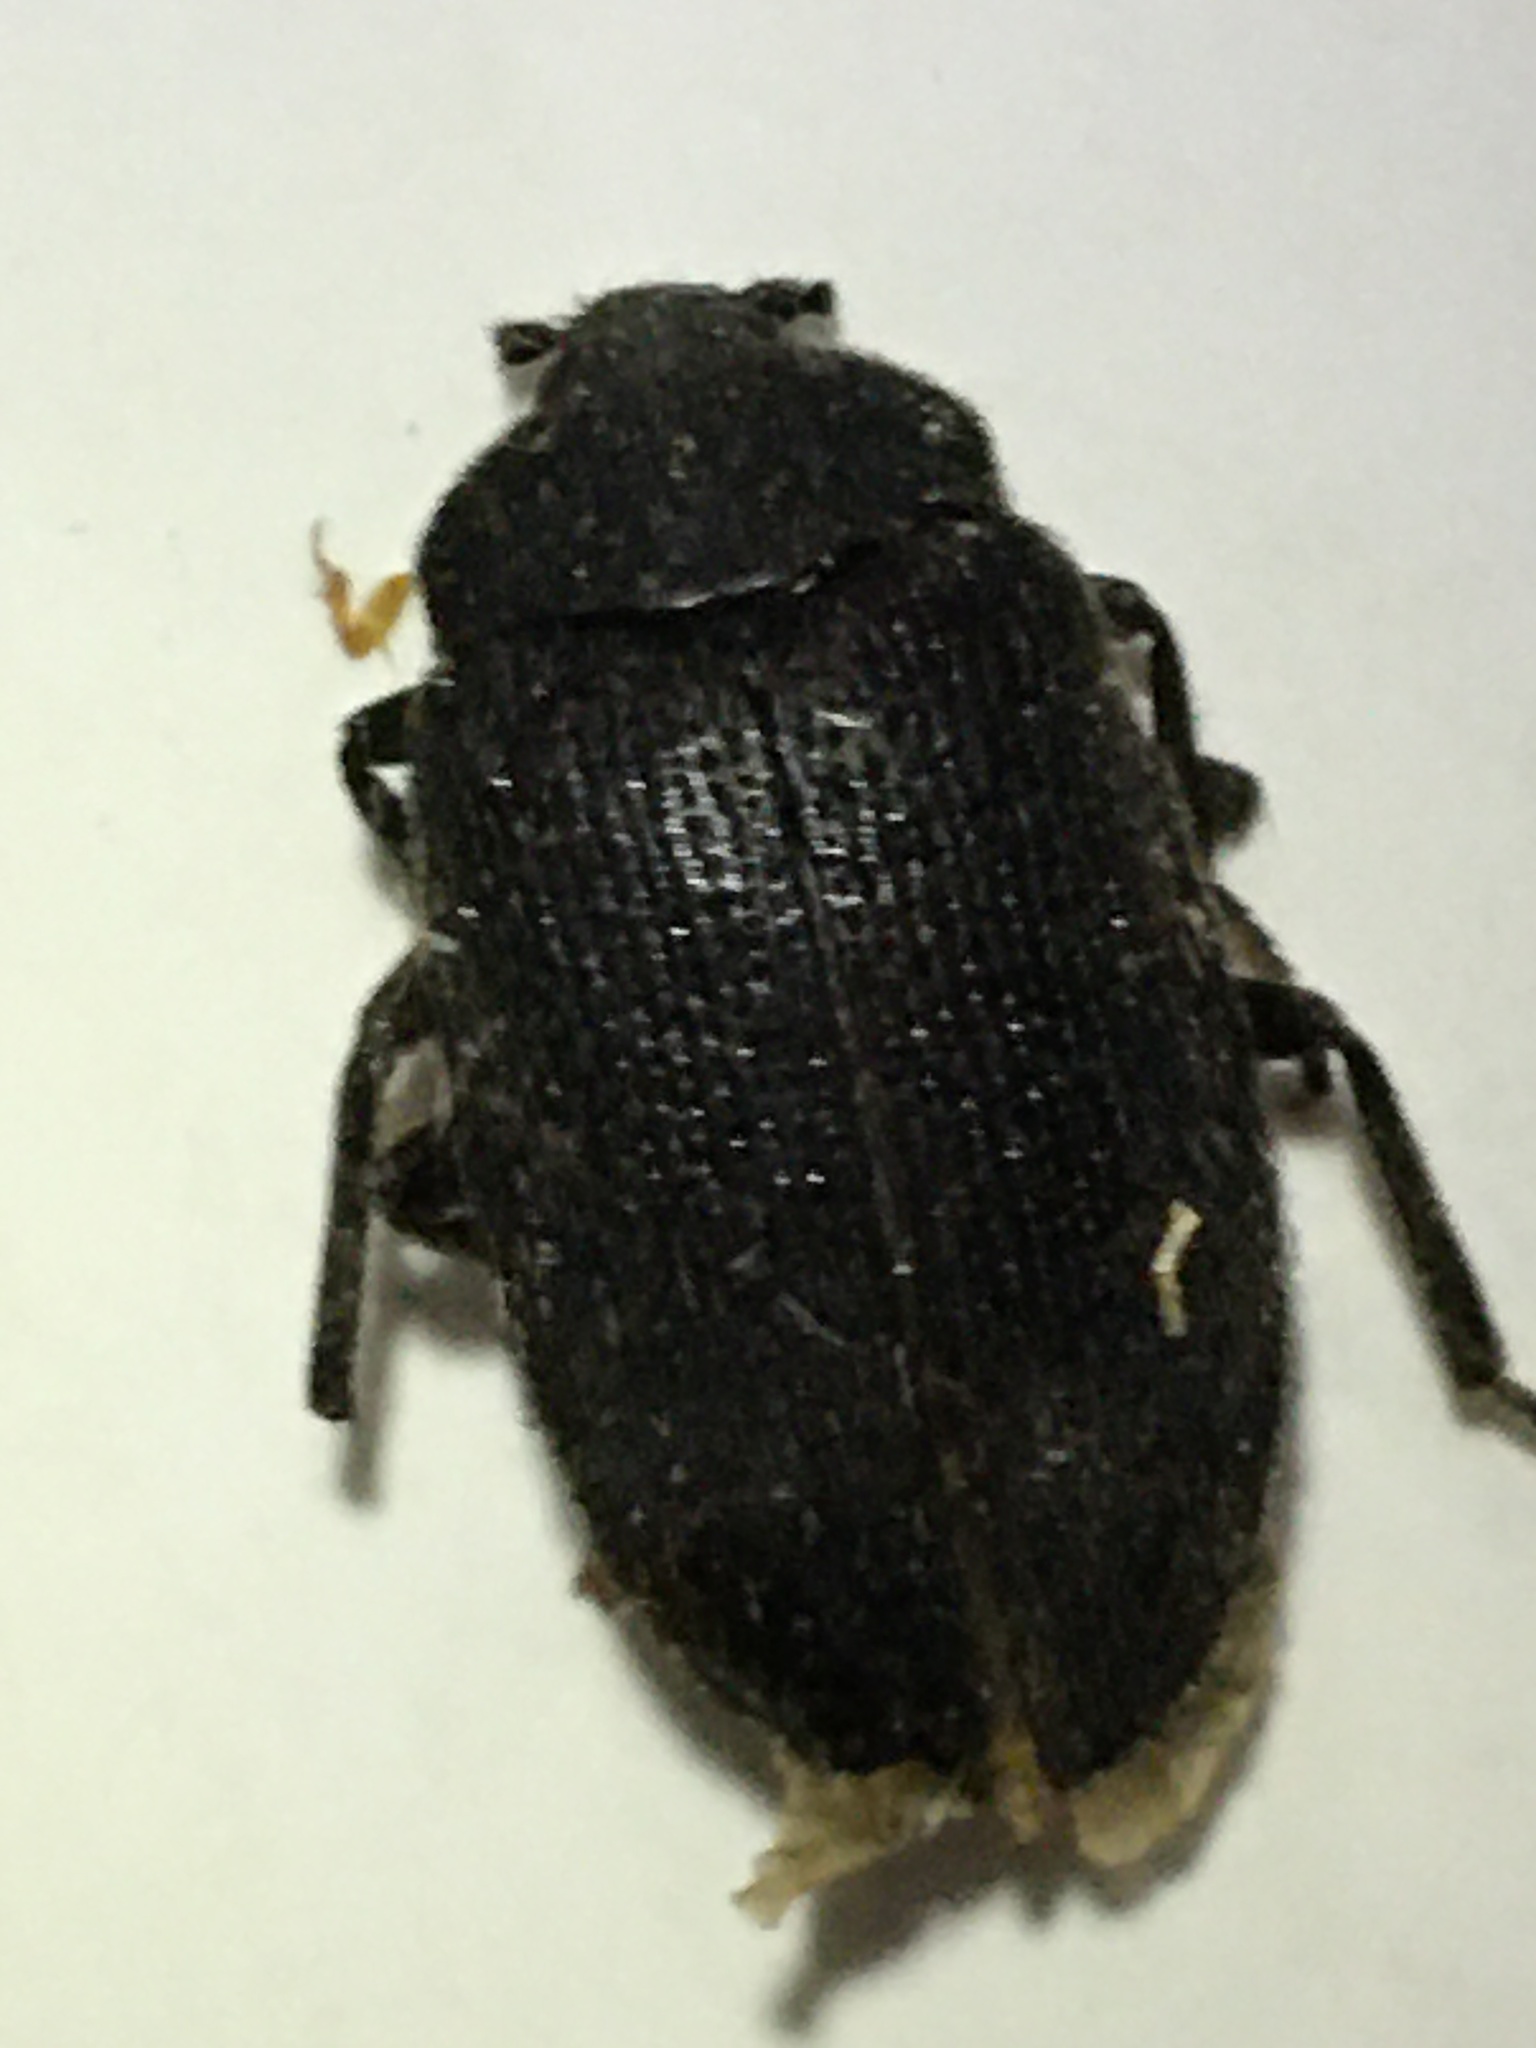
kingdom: Animalia
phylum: Arthropoda
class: Insecta
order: Coleoptera
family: Tetratomidae
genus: Penthe
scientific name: Penthe pimelia
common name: Velvety bark beetle
